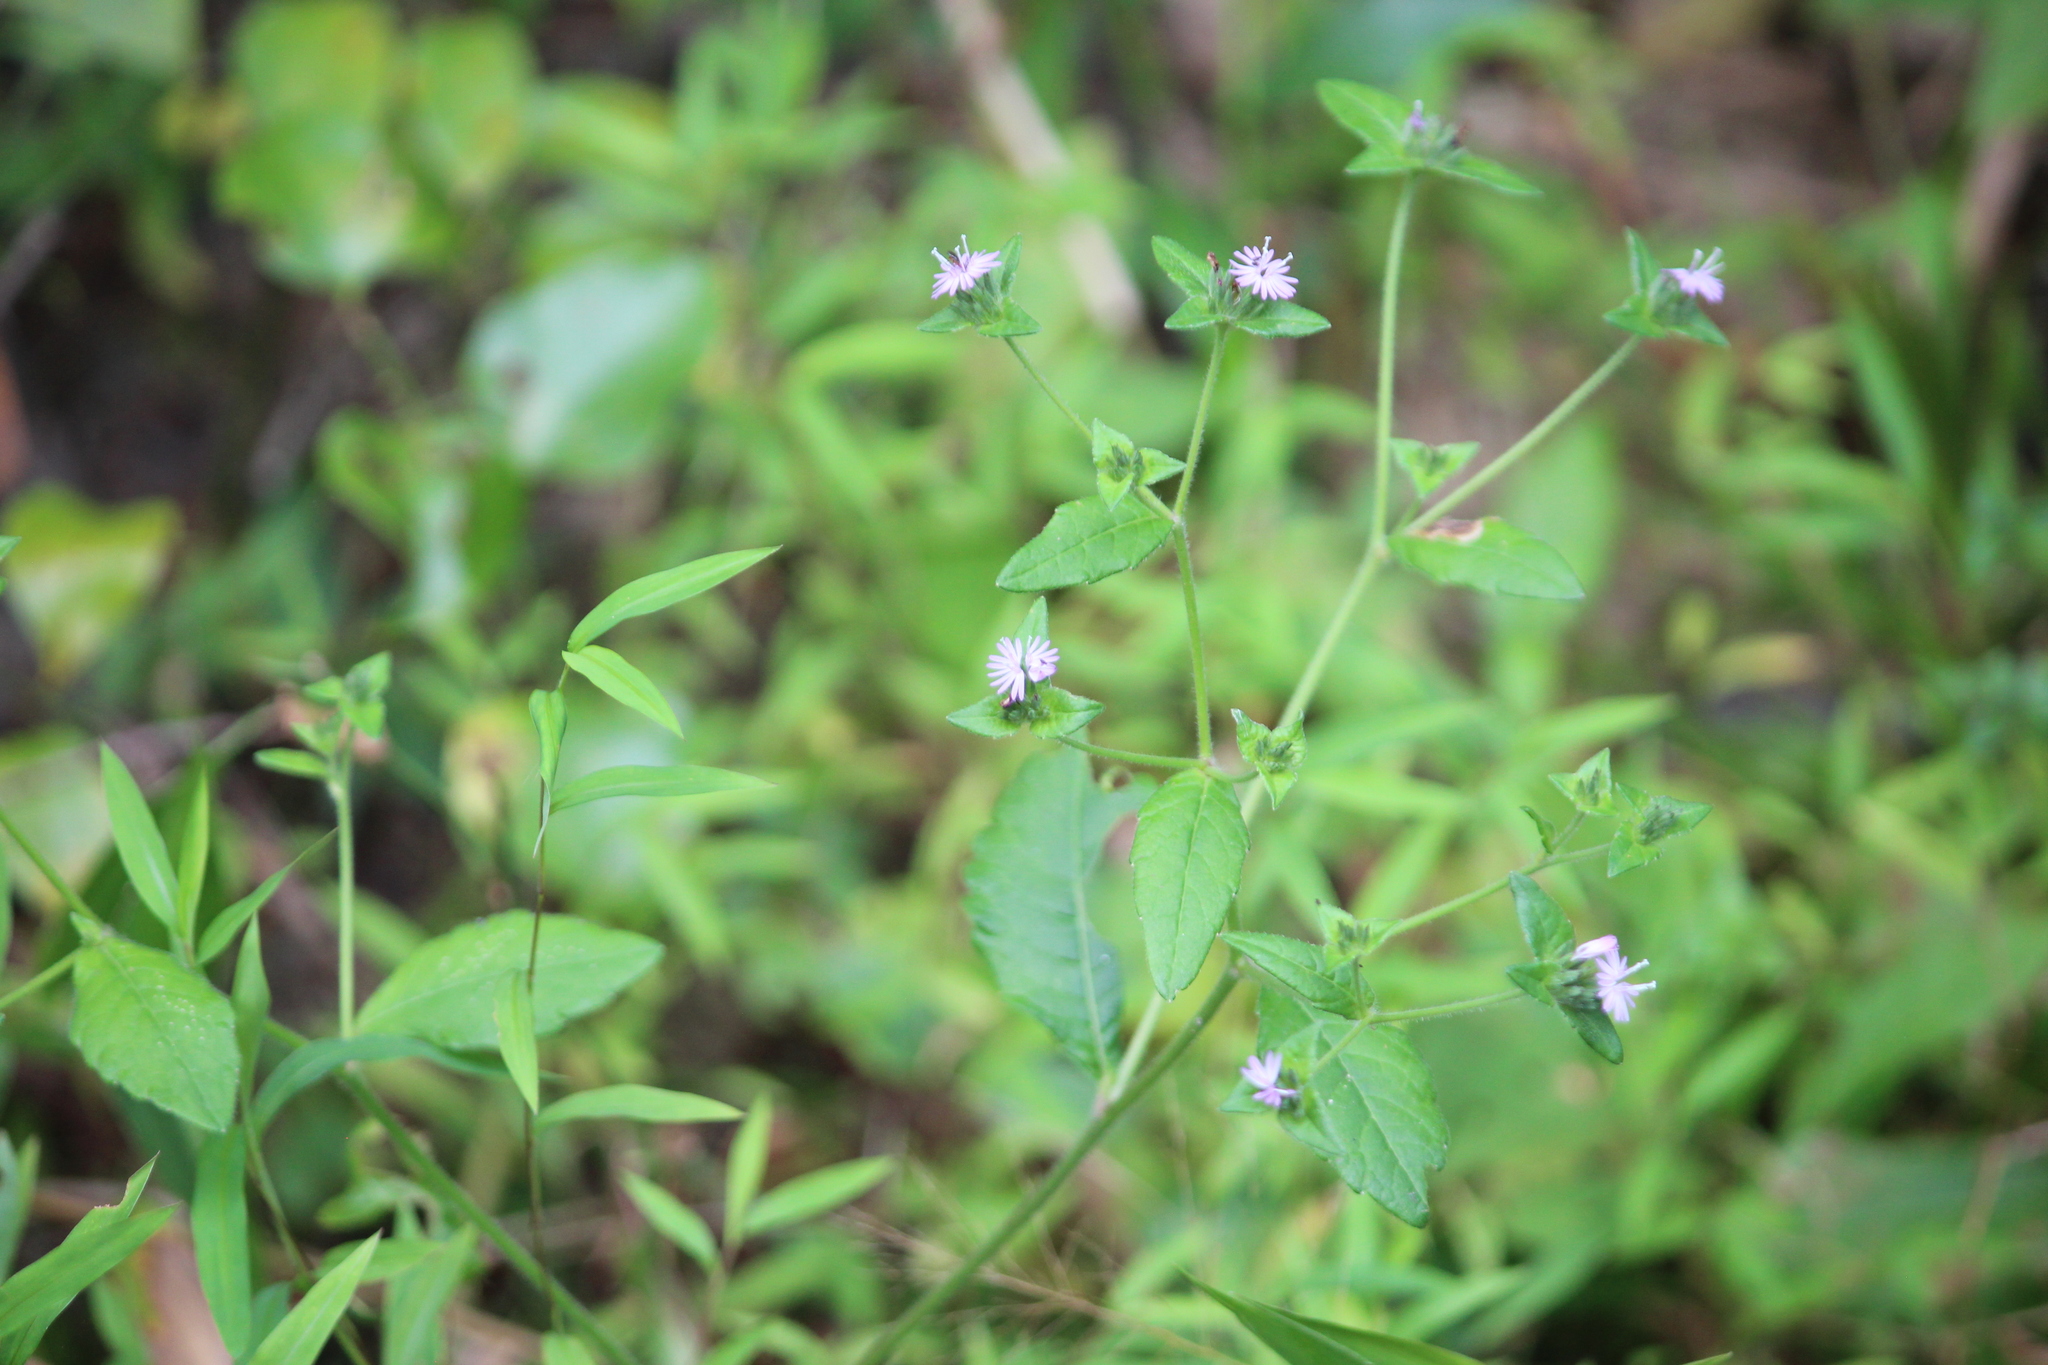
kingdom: Plantae
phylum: Tracheophyta
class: Magnoliopsida
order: Asterales
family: Asteraceae
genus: Elephantopus
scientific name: Elephantopus carolinianus
